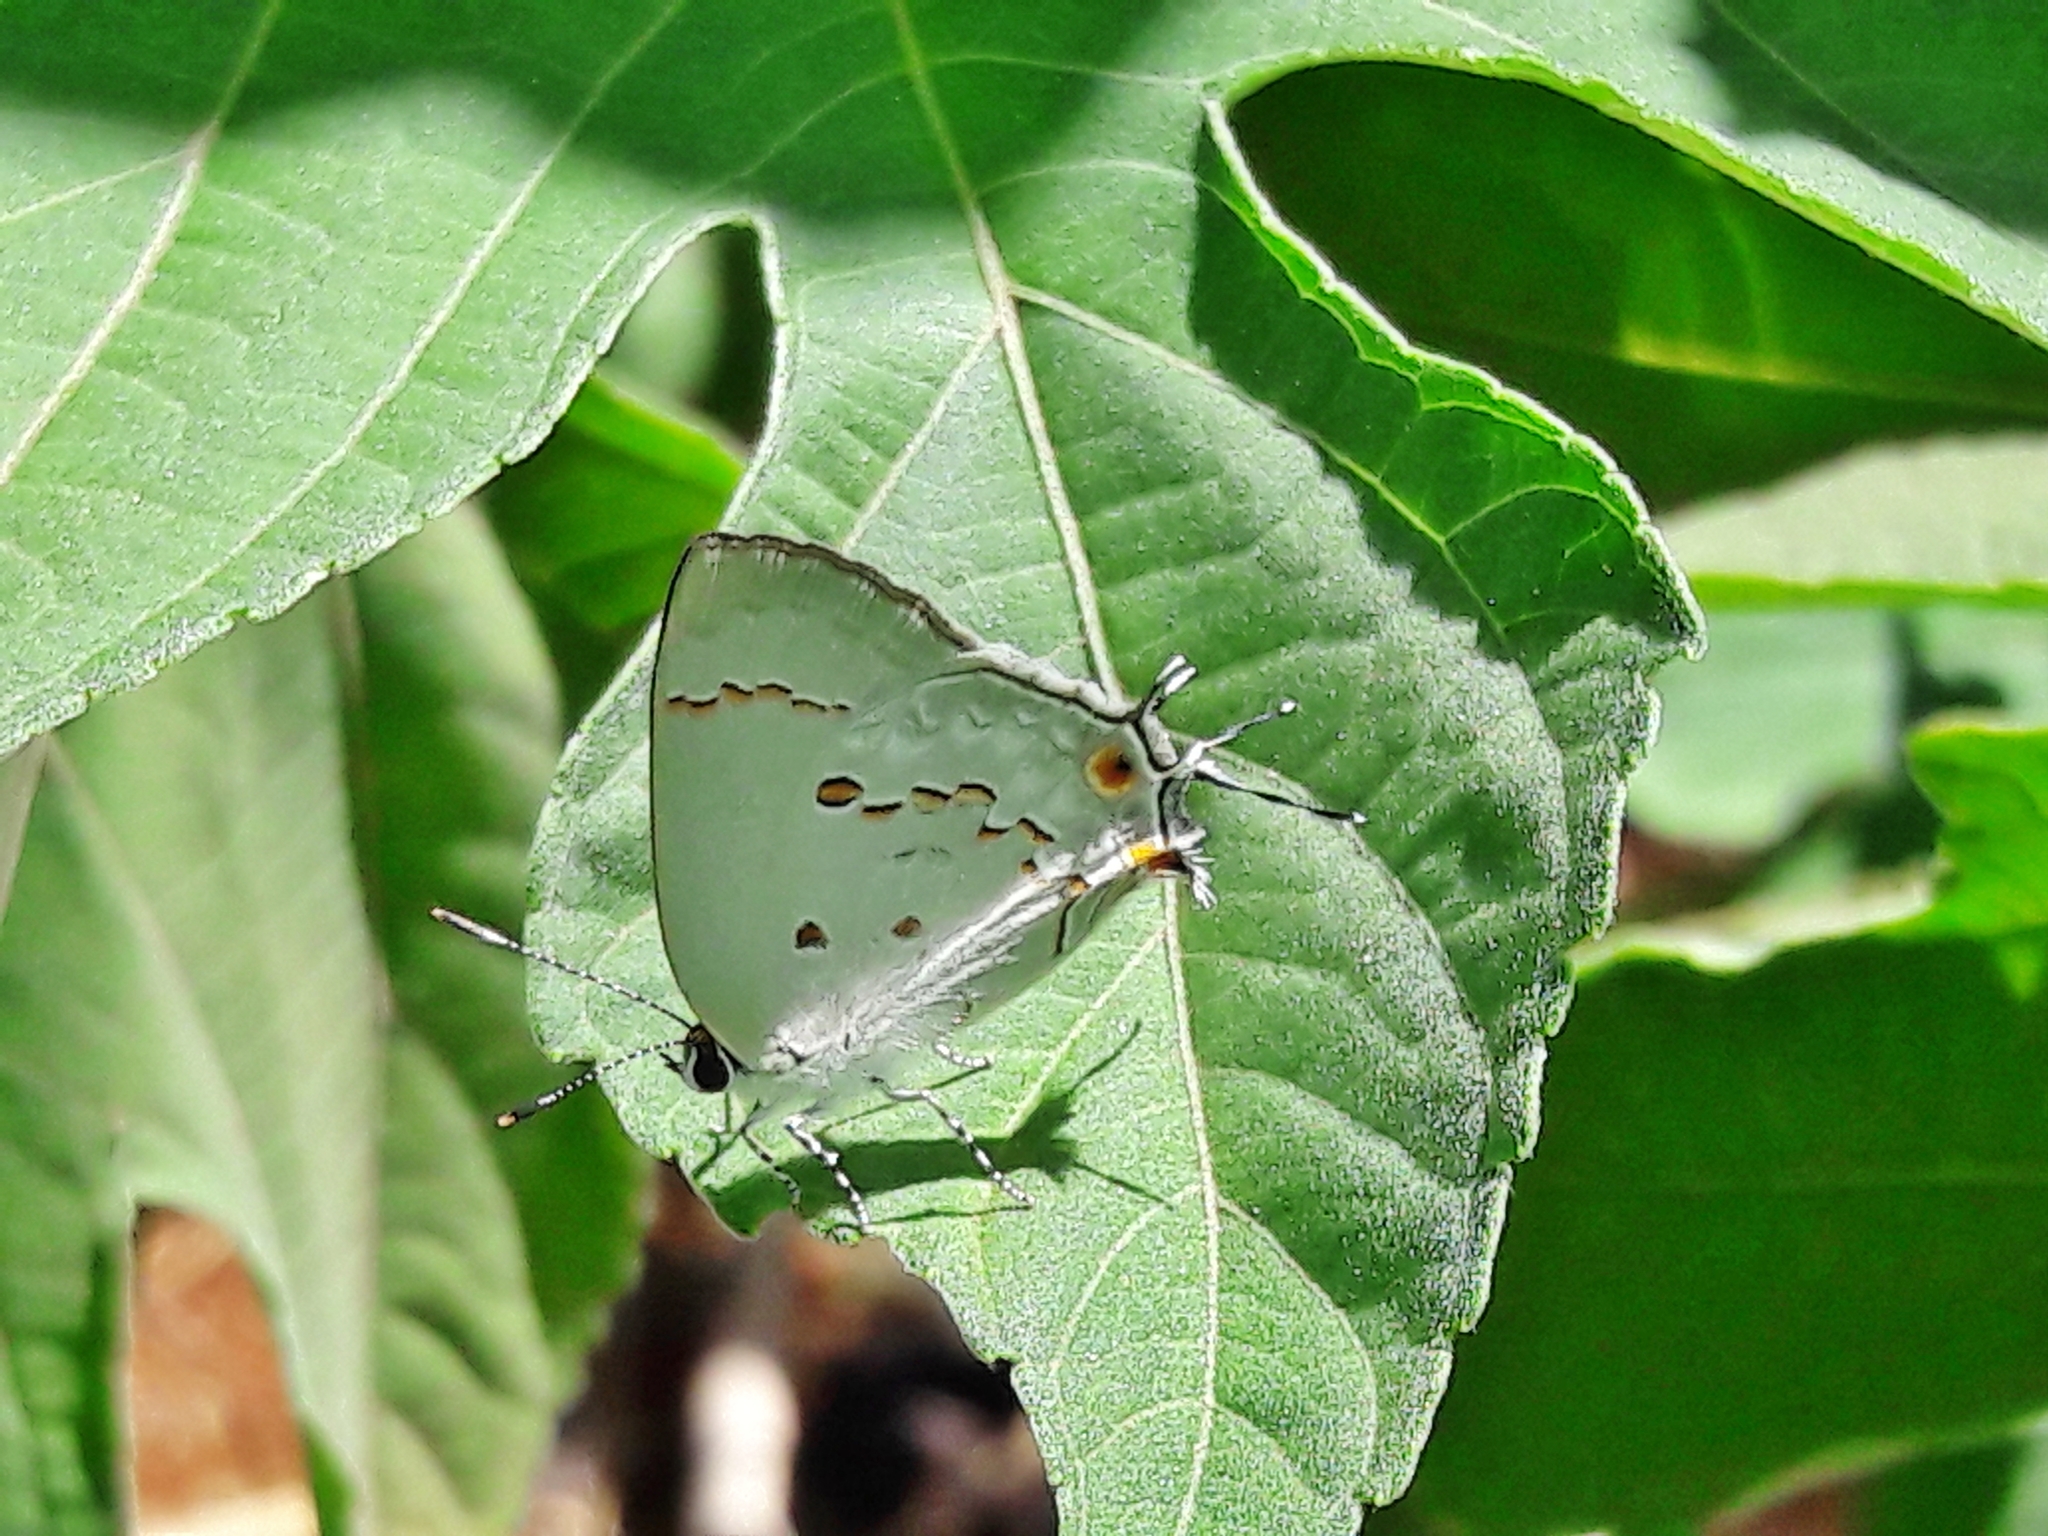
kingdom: Animalia
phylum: Arthropoda
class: Insecta
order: Lepidoptera
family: Lycaenidae
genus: Strymon
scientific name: Strymon
